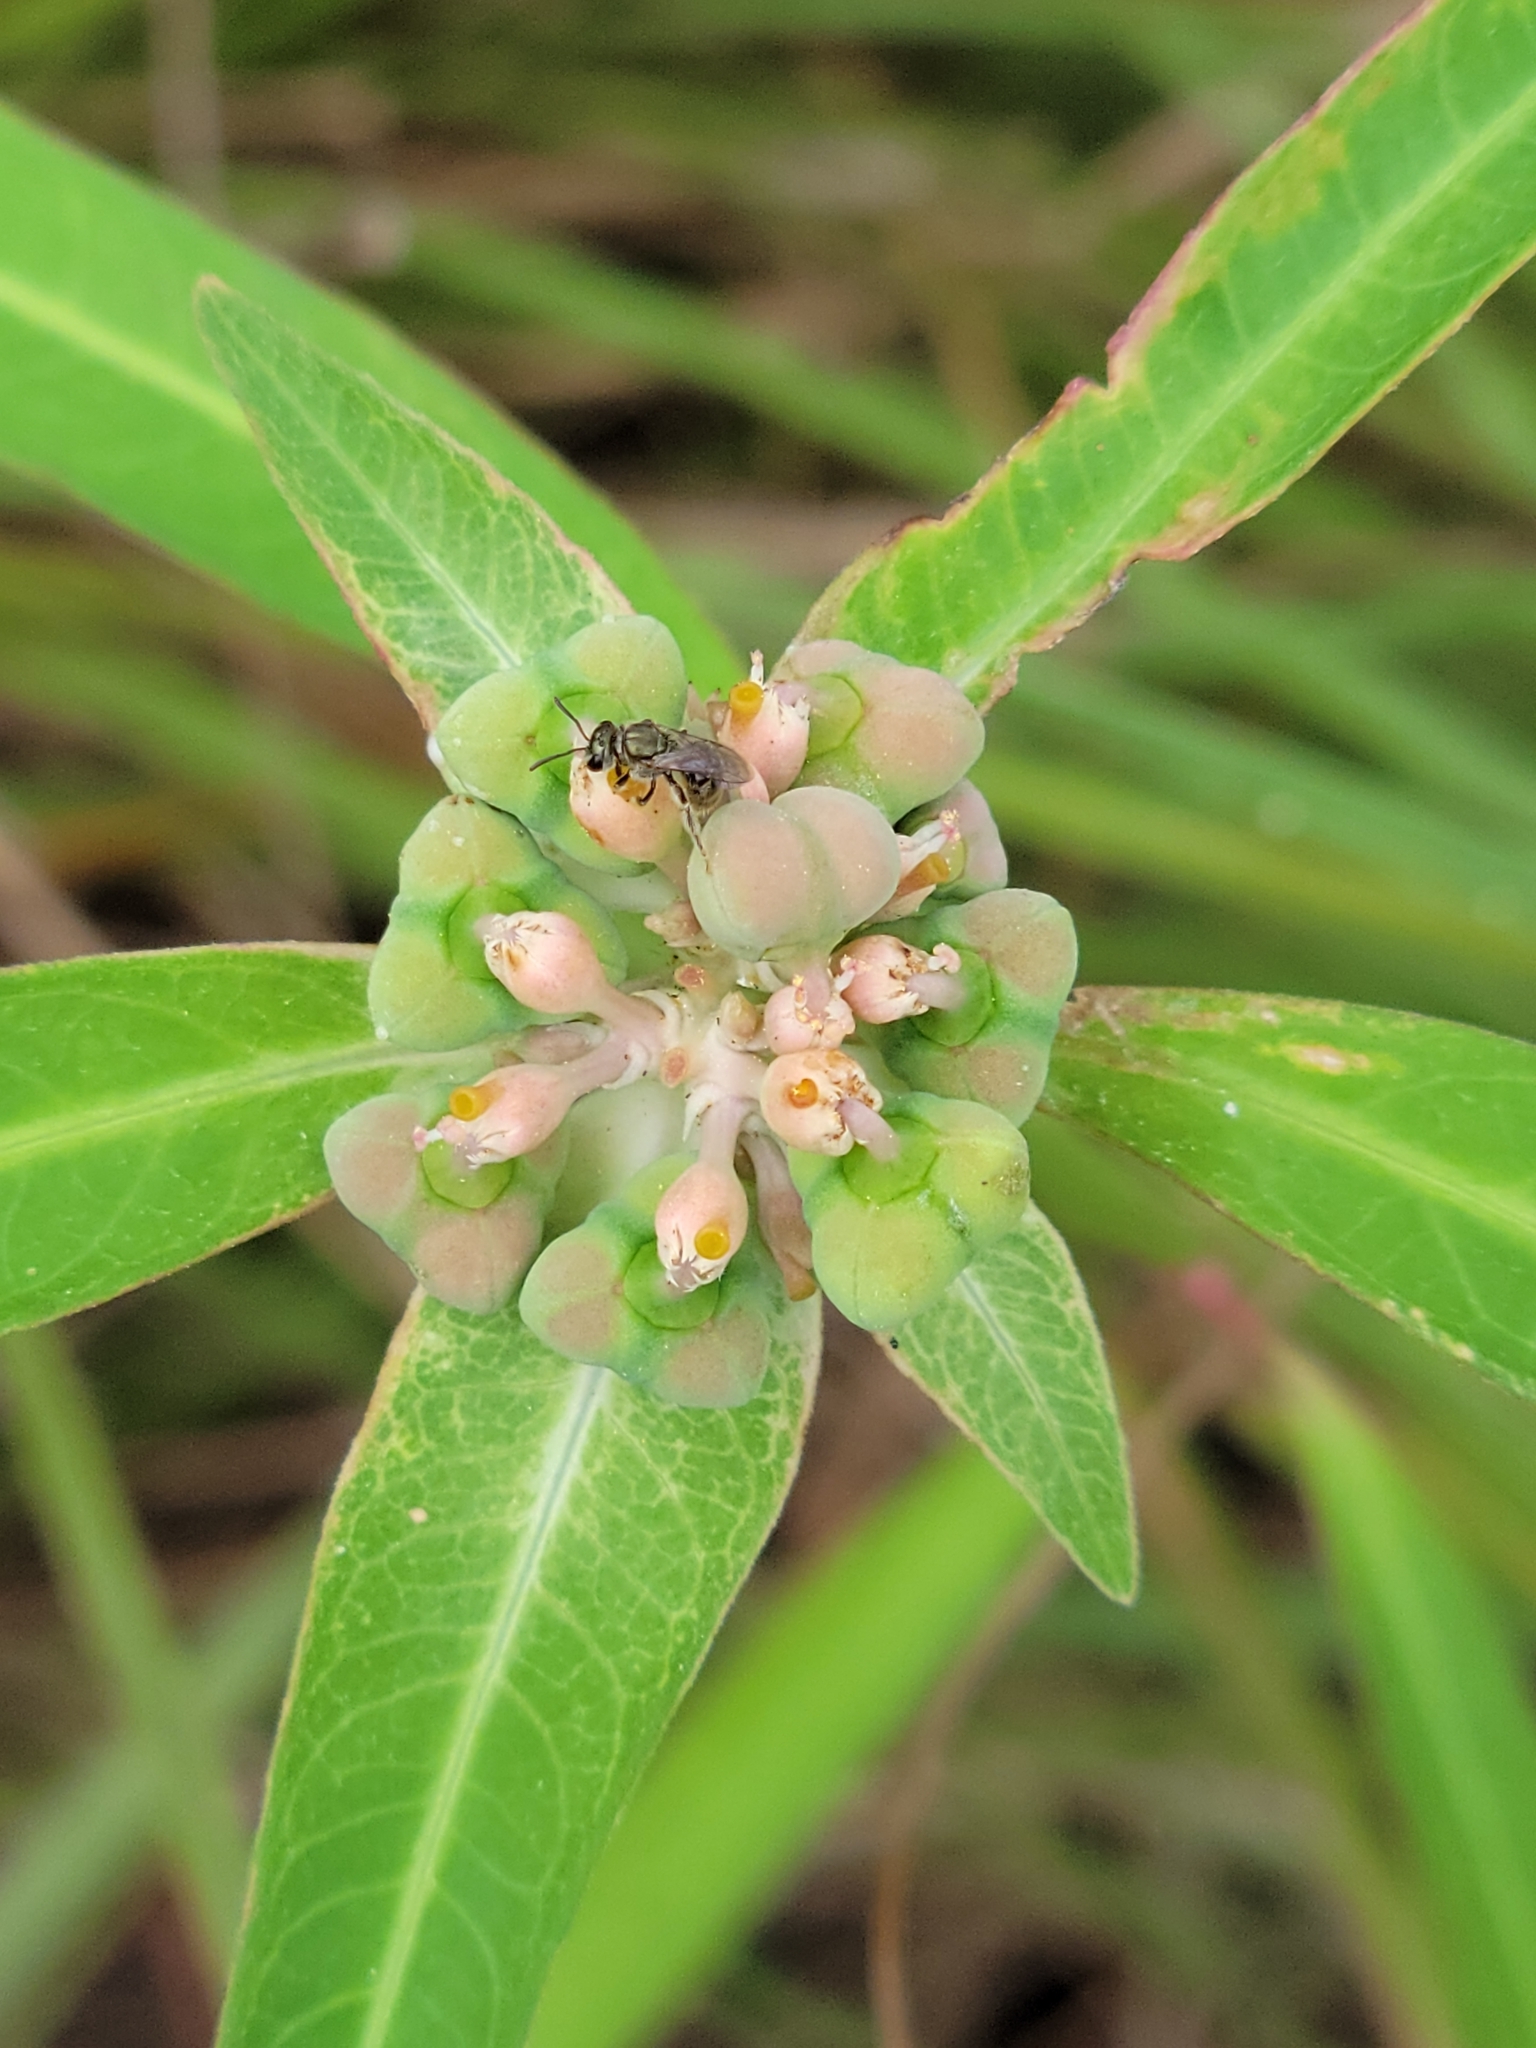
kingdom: Plantae
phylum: Tracheophyta
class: Magnoliopsida
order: Malpighiales
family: Euphorbiaceae
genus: Euphorbia
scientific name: Euphorbia heterophylla
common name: Mexican fireplant
